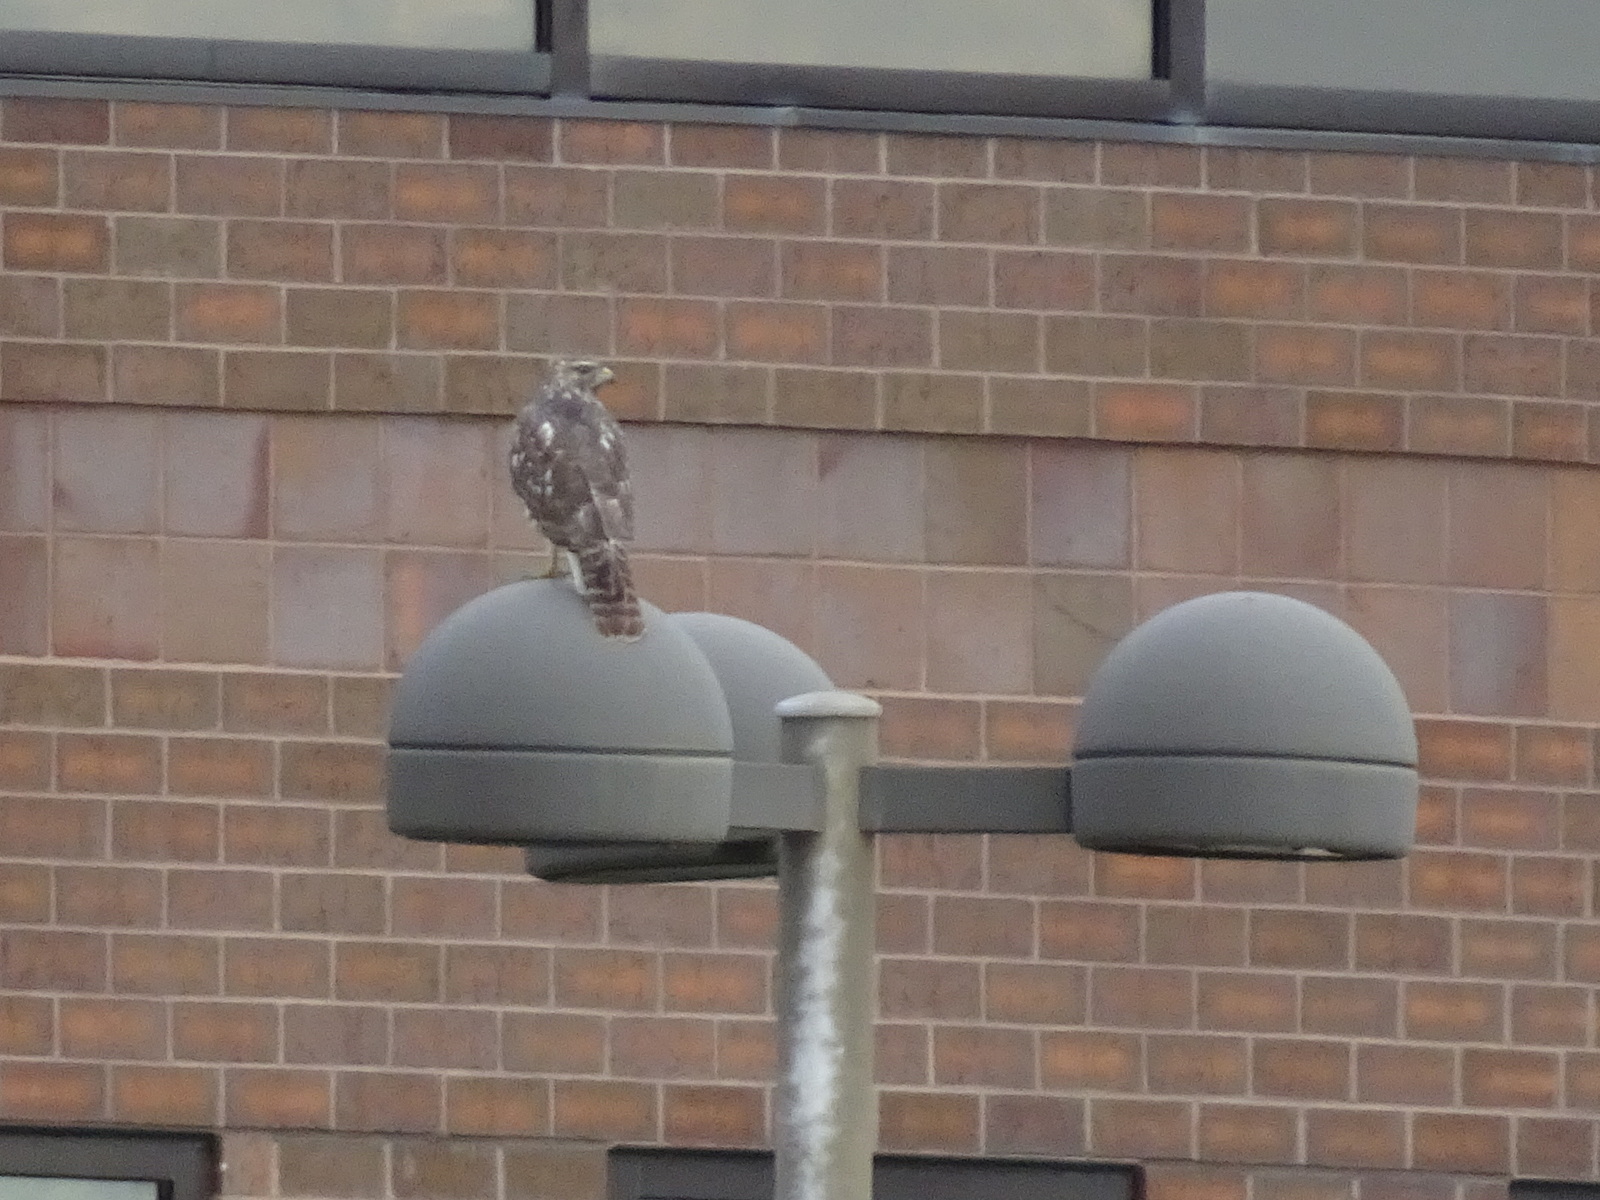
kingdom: Animalia
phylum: Chordata
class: Aves
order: Accipitriformes
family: Accipitridae
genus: Buteo
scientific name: Buteo lineatus
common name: Red-shouldered hawk
